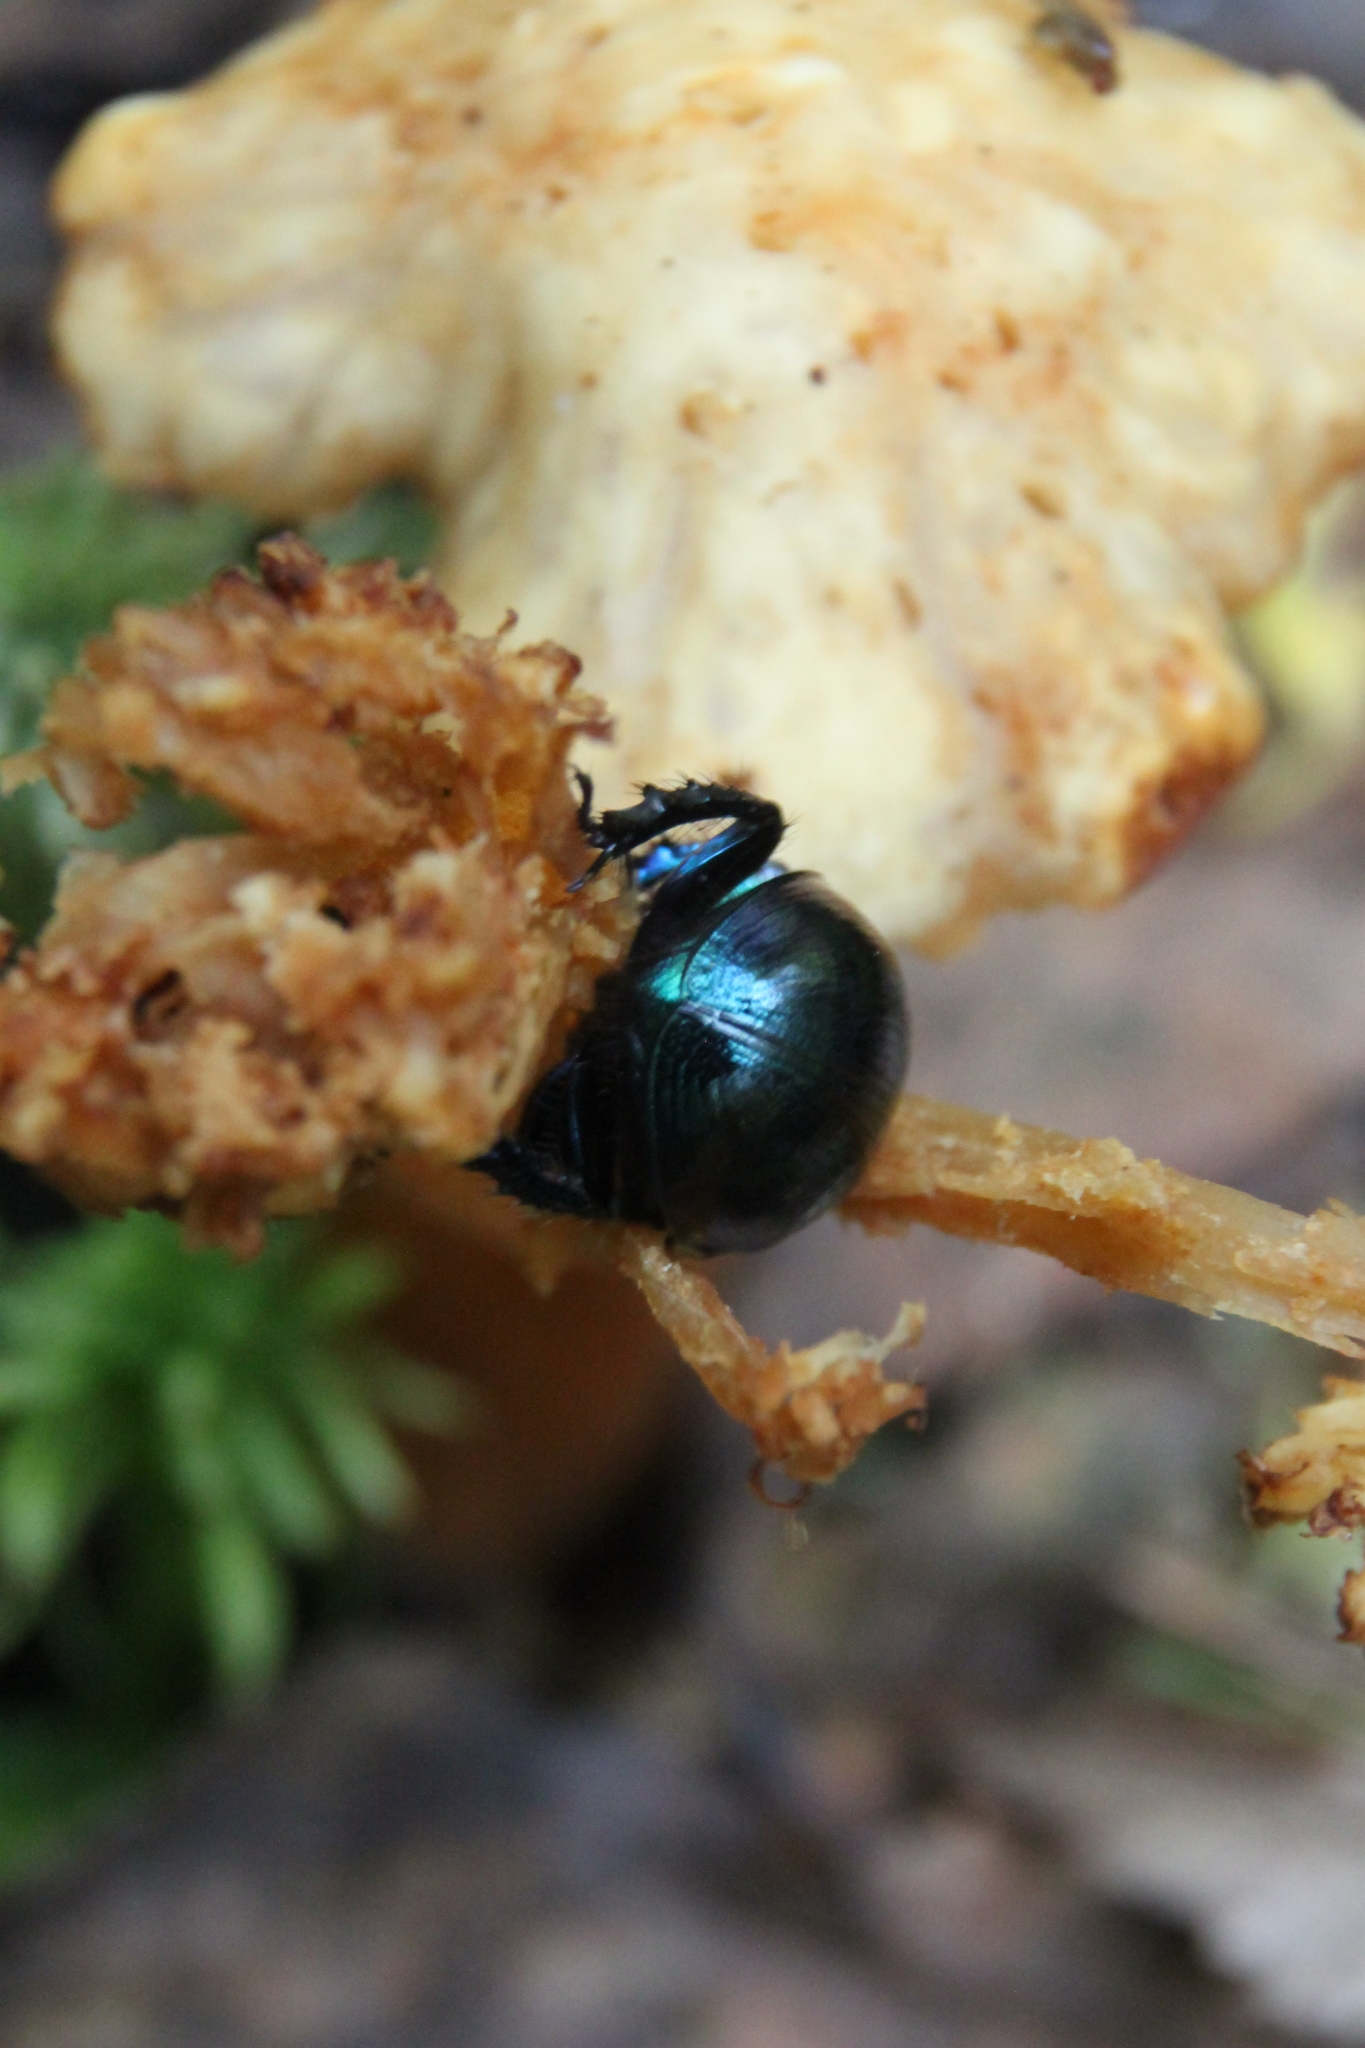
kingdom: Animalia
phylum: Arthropoda
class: Insecta
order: Coleoptera
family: Geotrupidae
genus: Anoplotrupes
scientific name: Anoplotrupes stercorosus
